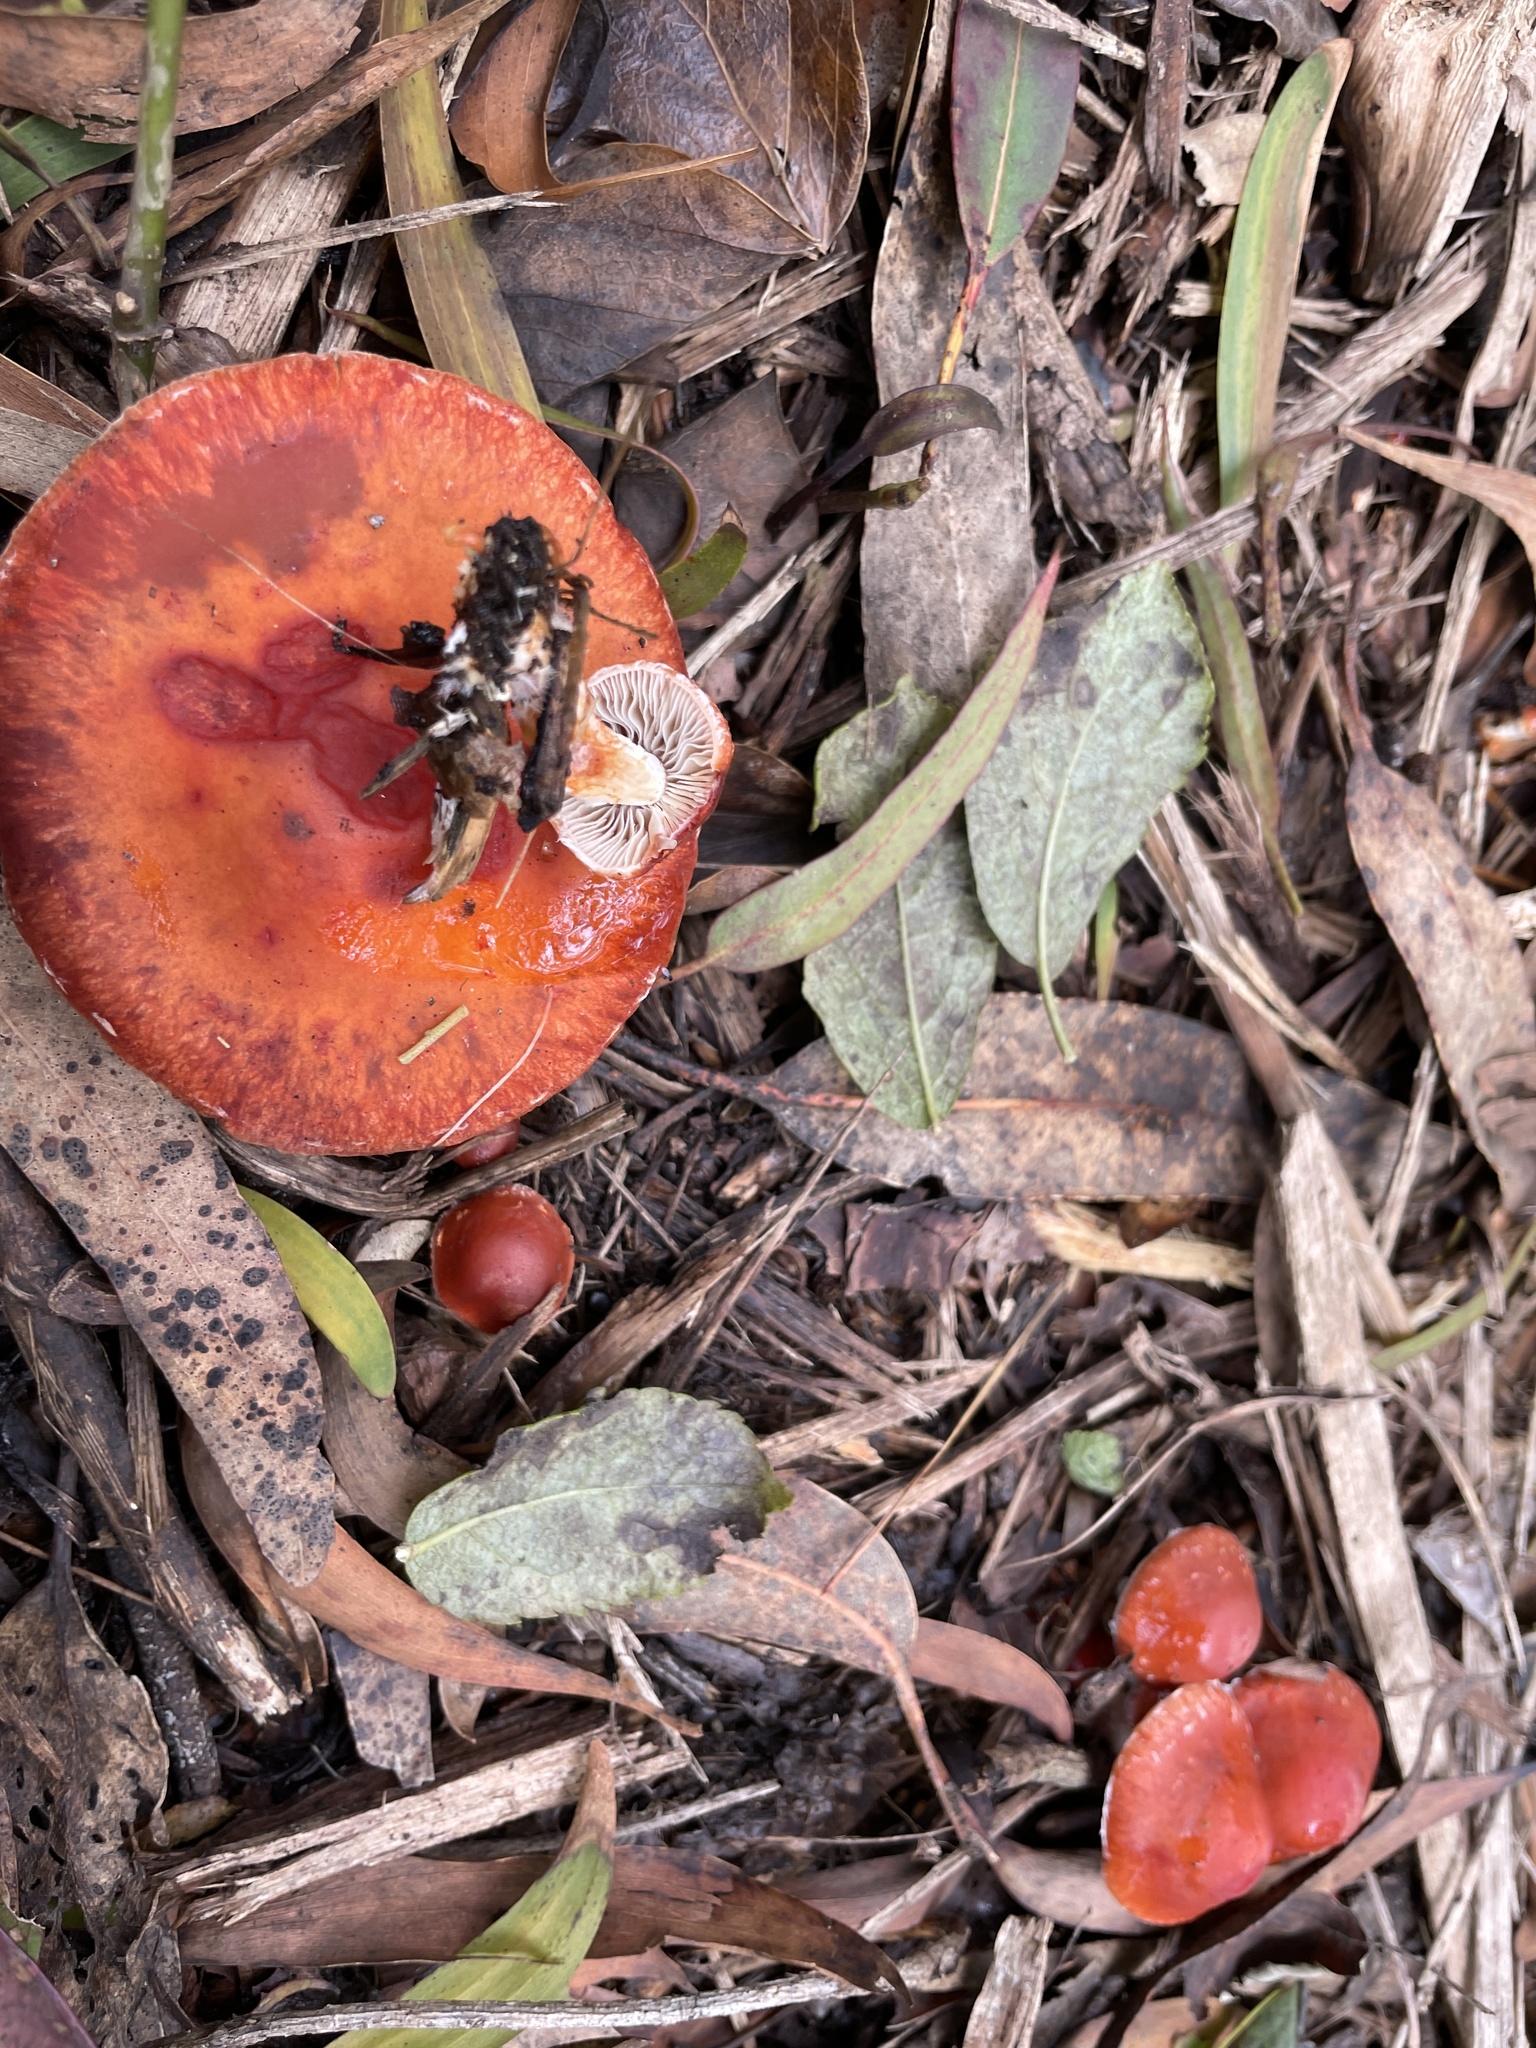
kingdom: Fungi
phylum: Basidiomycota
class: Agaricomycetes
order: Agaricales
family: Strophariaceae
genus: Leratiomyces
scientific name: Leratiomyces ceres
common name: Redlead roundhead
